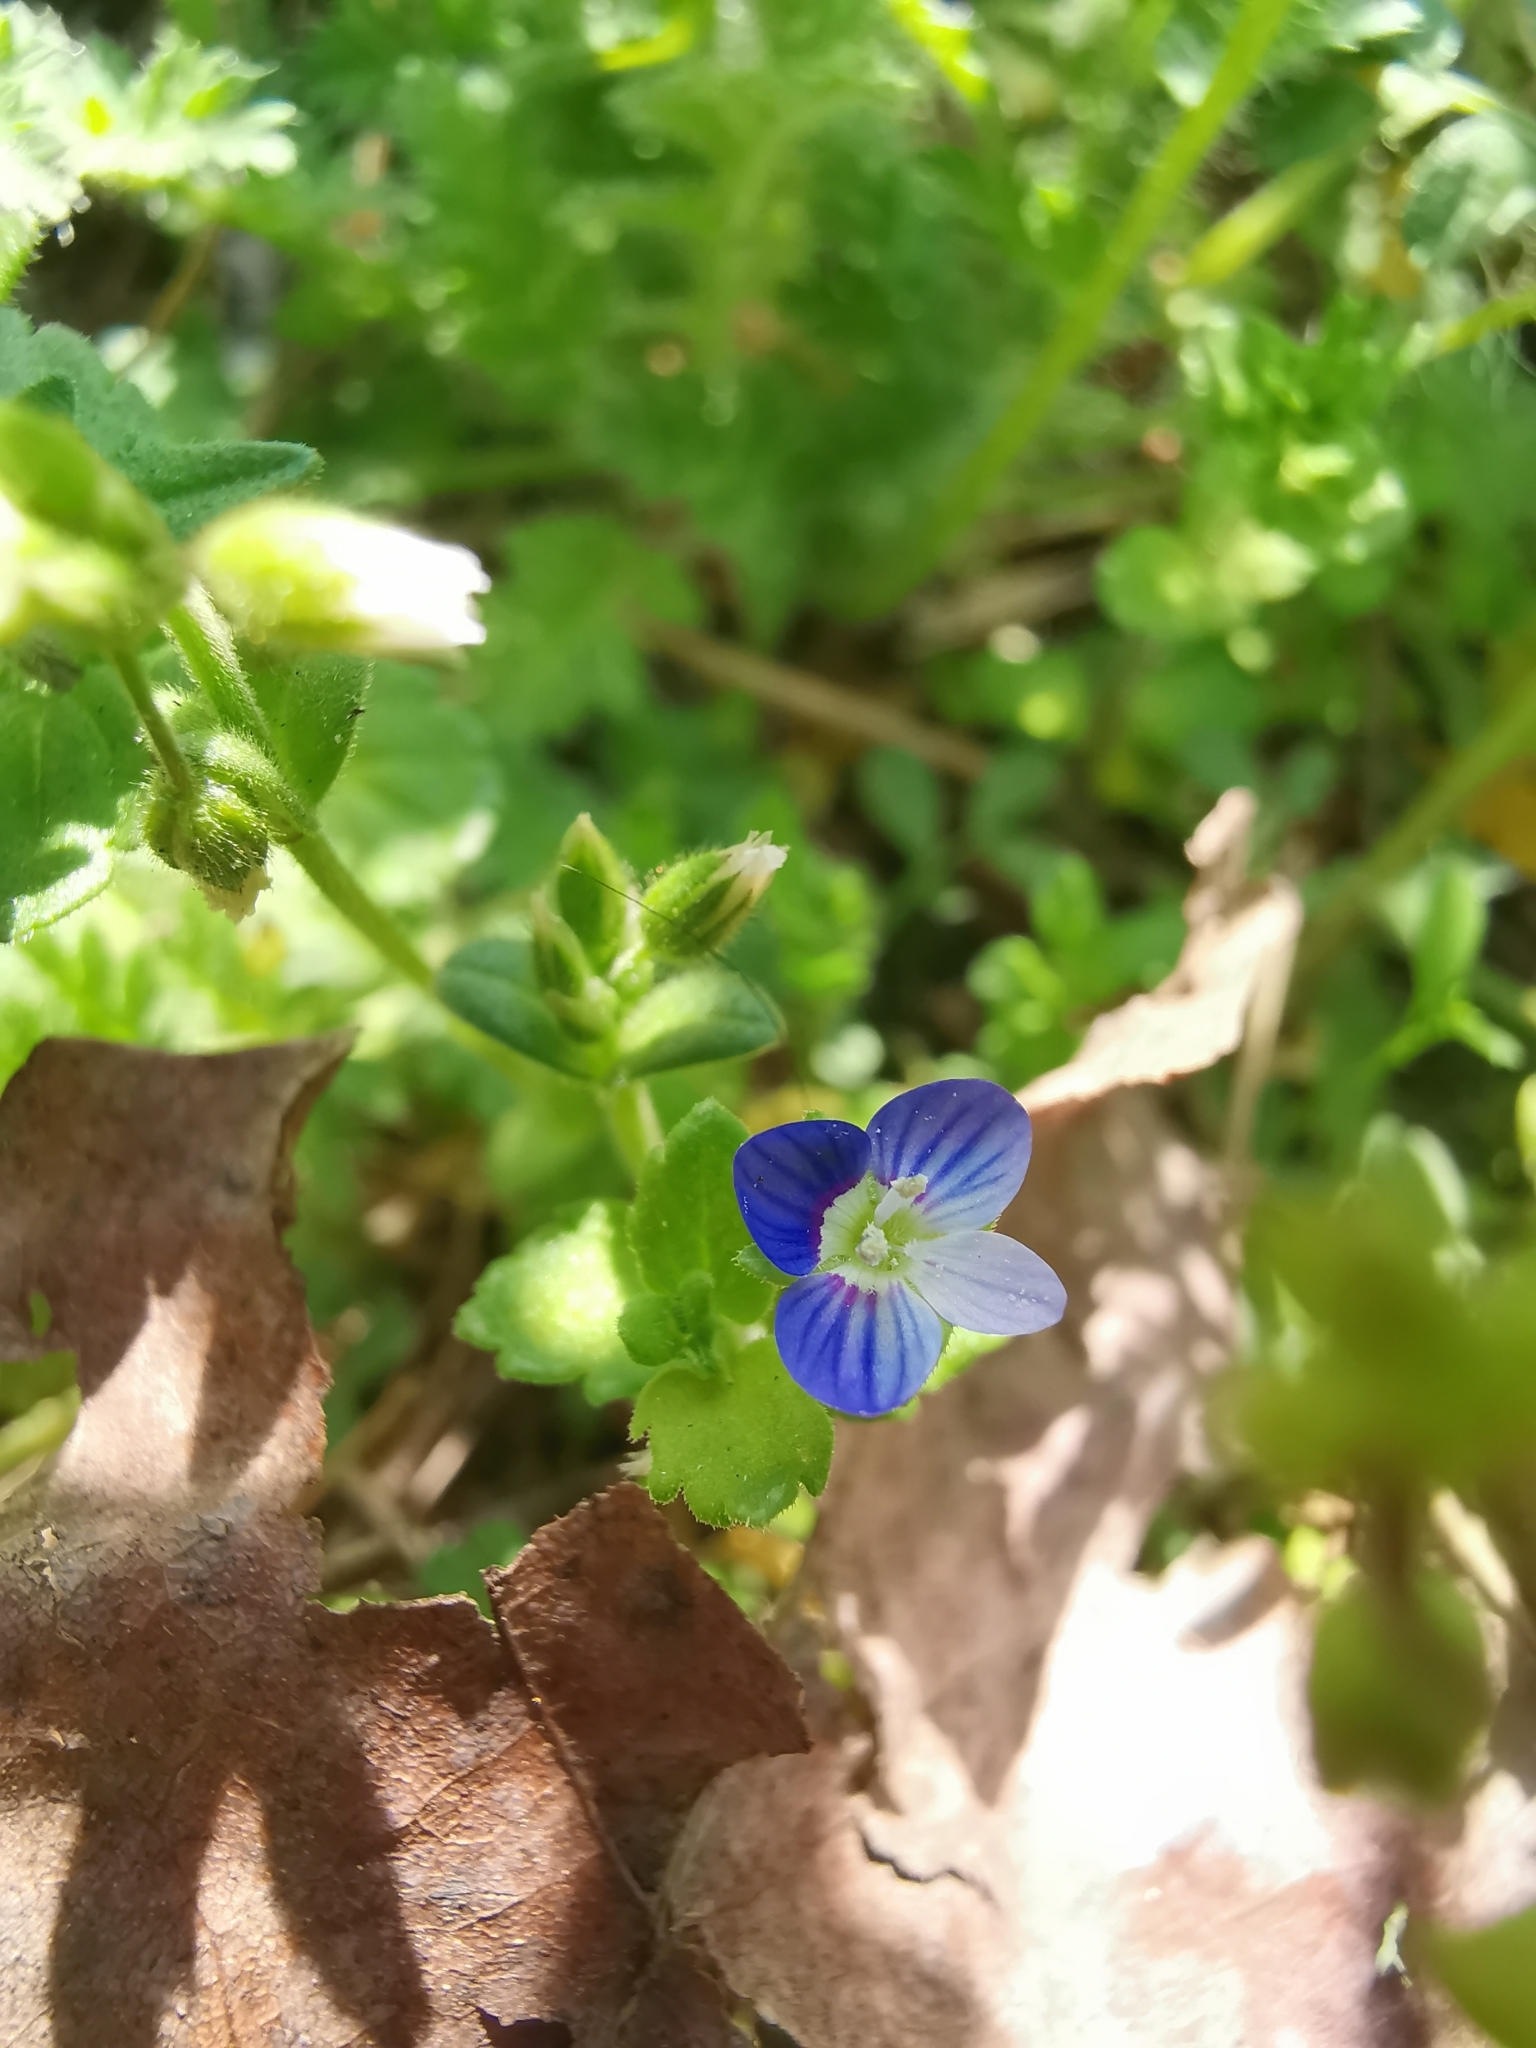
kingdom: Plantae
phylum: Tracheophyta
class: Magnoliopsida
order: Lamiales
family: Plantaginaceae
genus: Veronica
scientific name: Veronica persica
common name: Common field-speedwell
